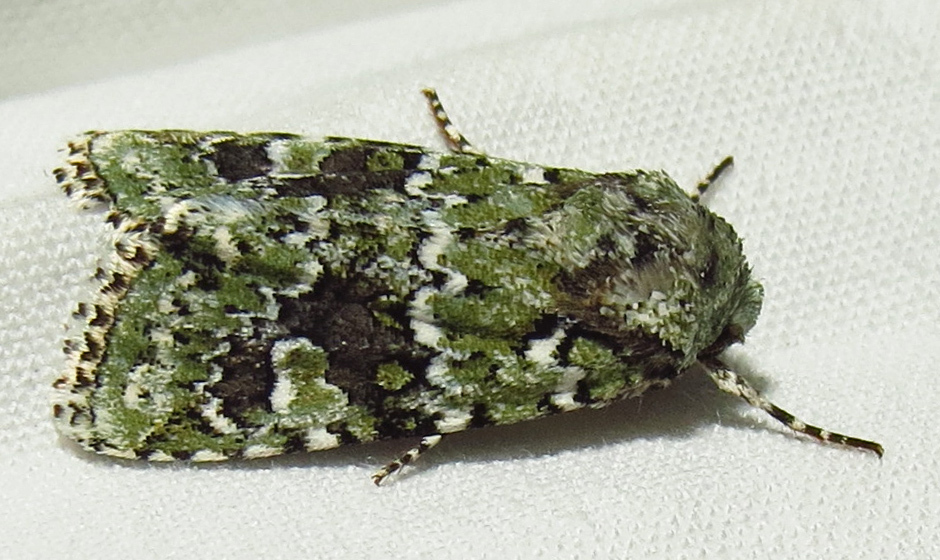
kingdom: Animalia
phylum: Arthropoda
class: Insecta
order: Lepidoptera
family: Noctuidae
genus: Lacinipolia
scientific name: Lacinipolia laudabilis
